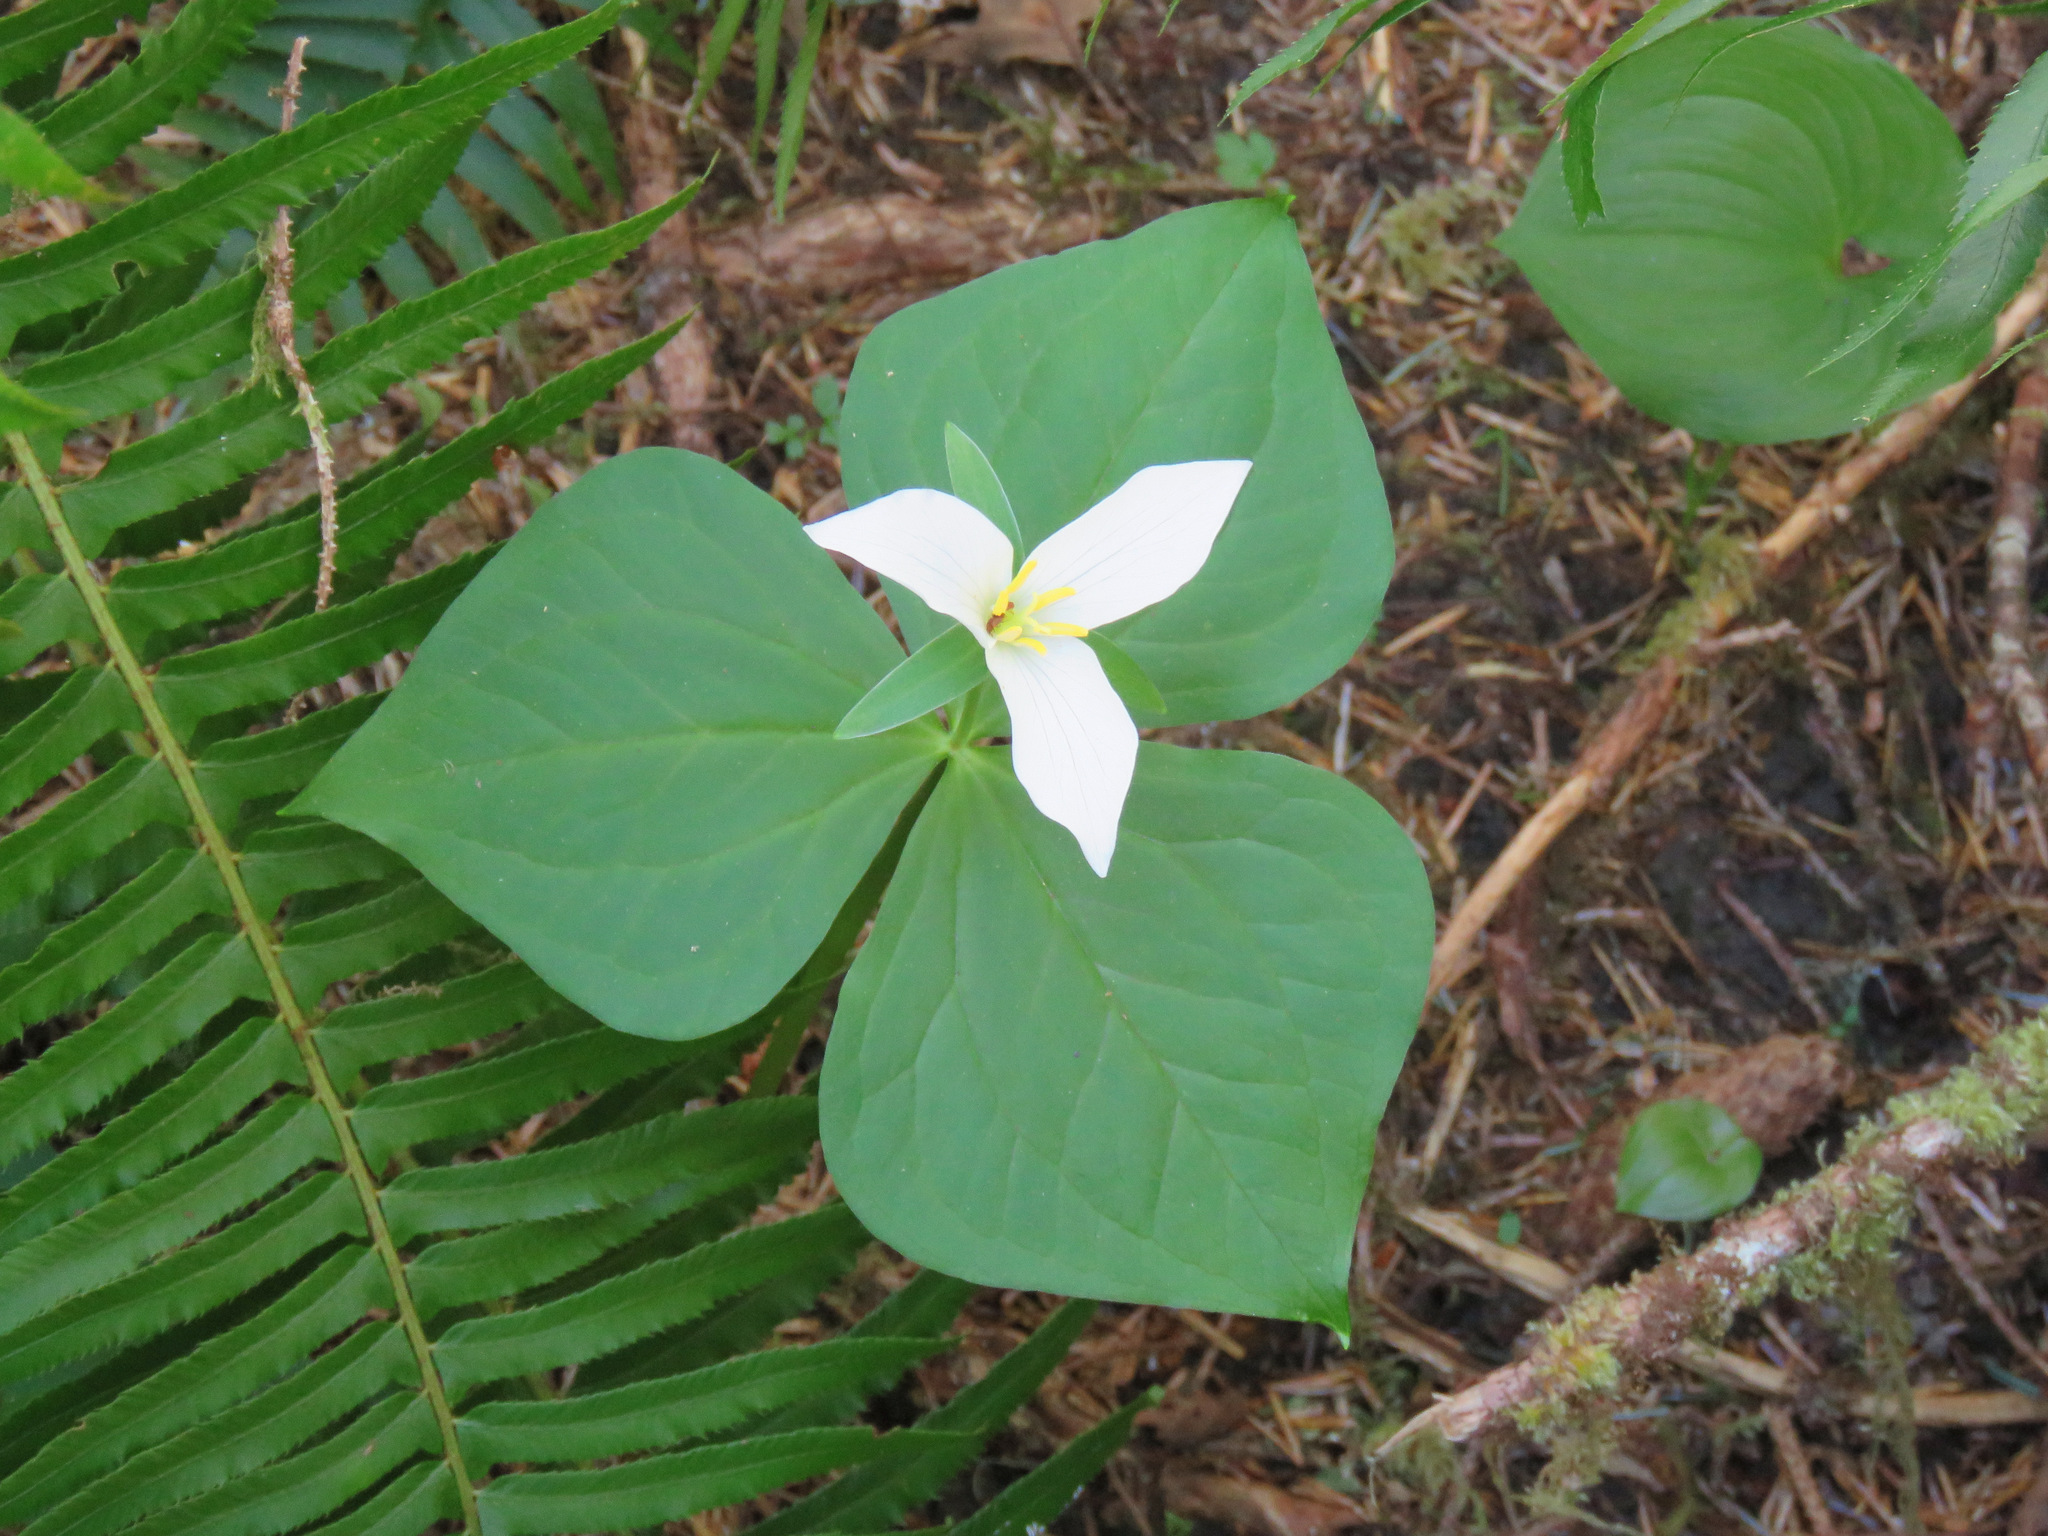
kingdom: Plantae
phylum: Tracheophyta
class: Liliopsida
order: Liliales
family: Melanthiaceae
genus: Trillium
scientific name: Trillium ovatum
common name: Pacific trillium
